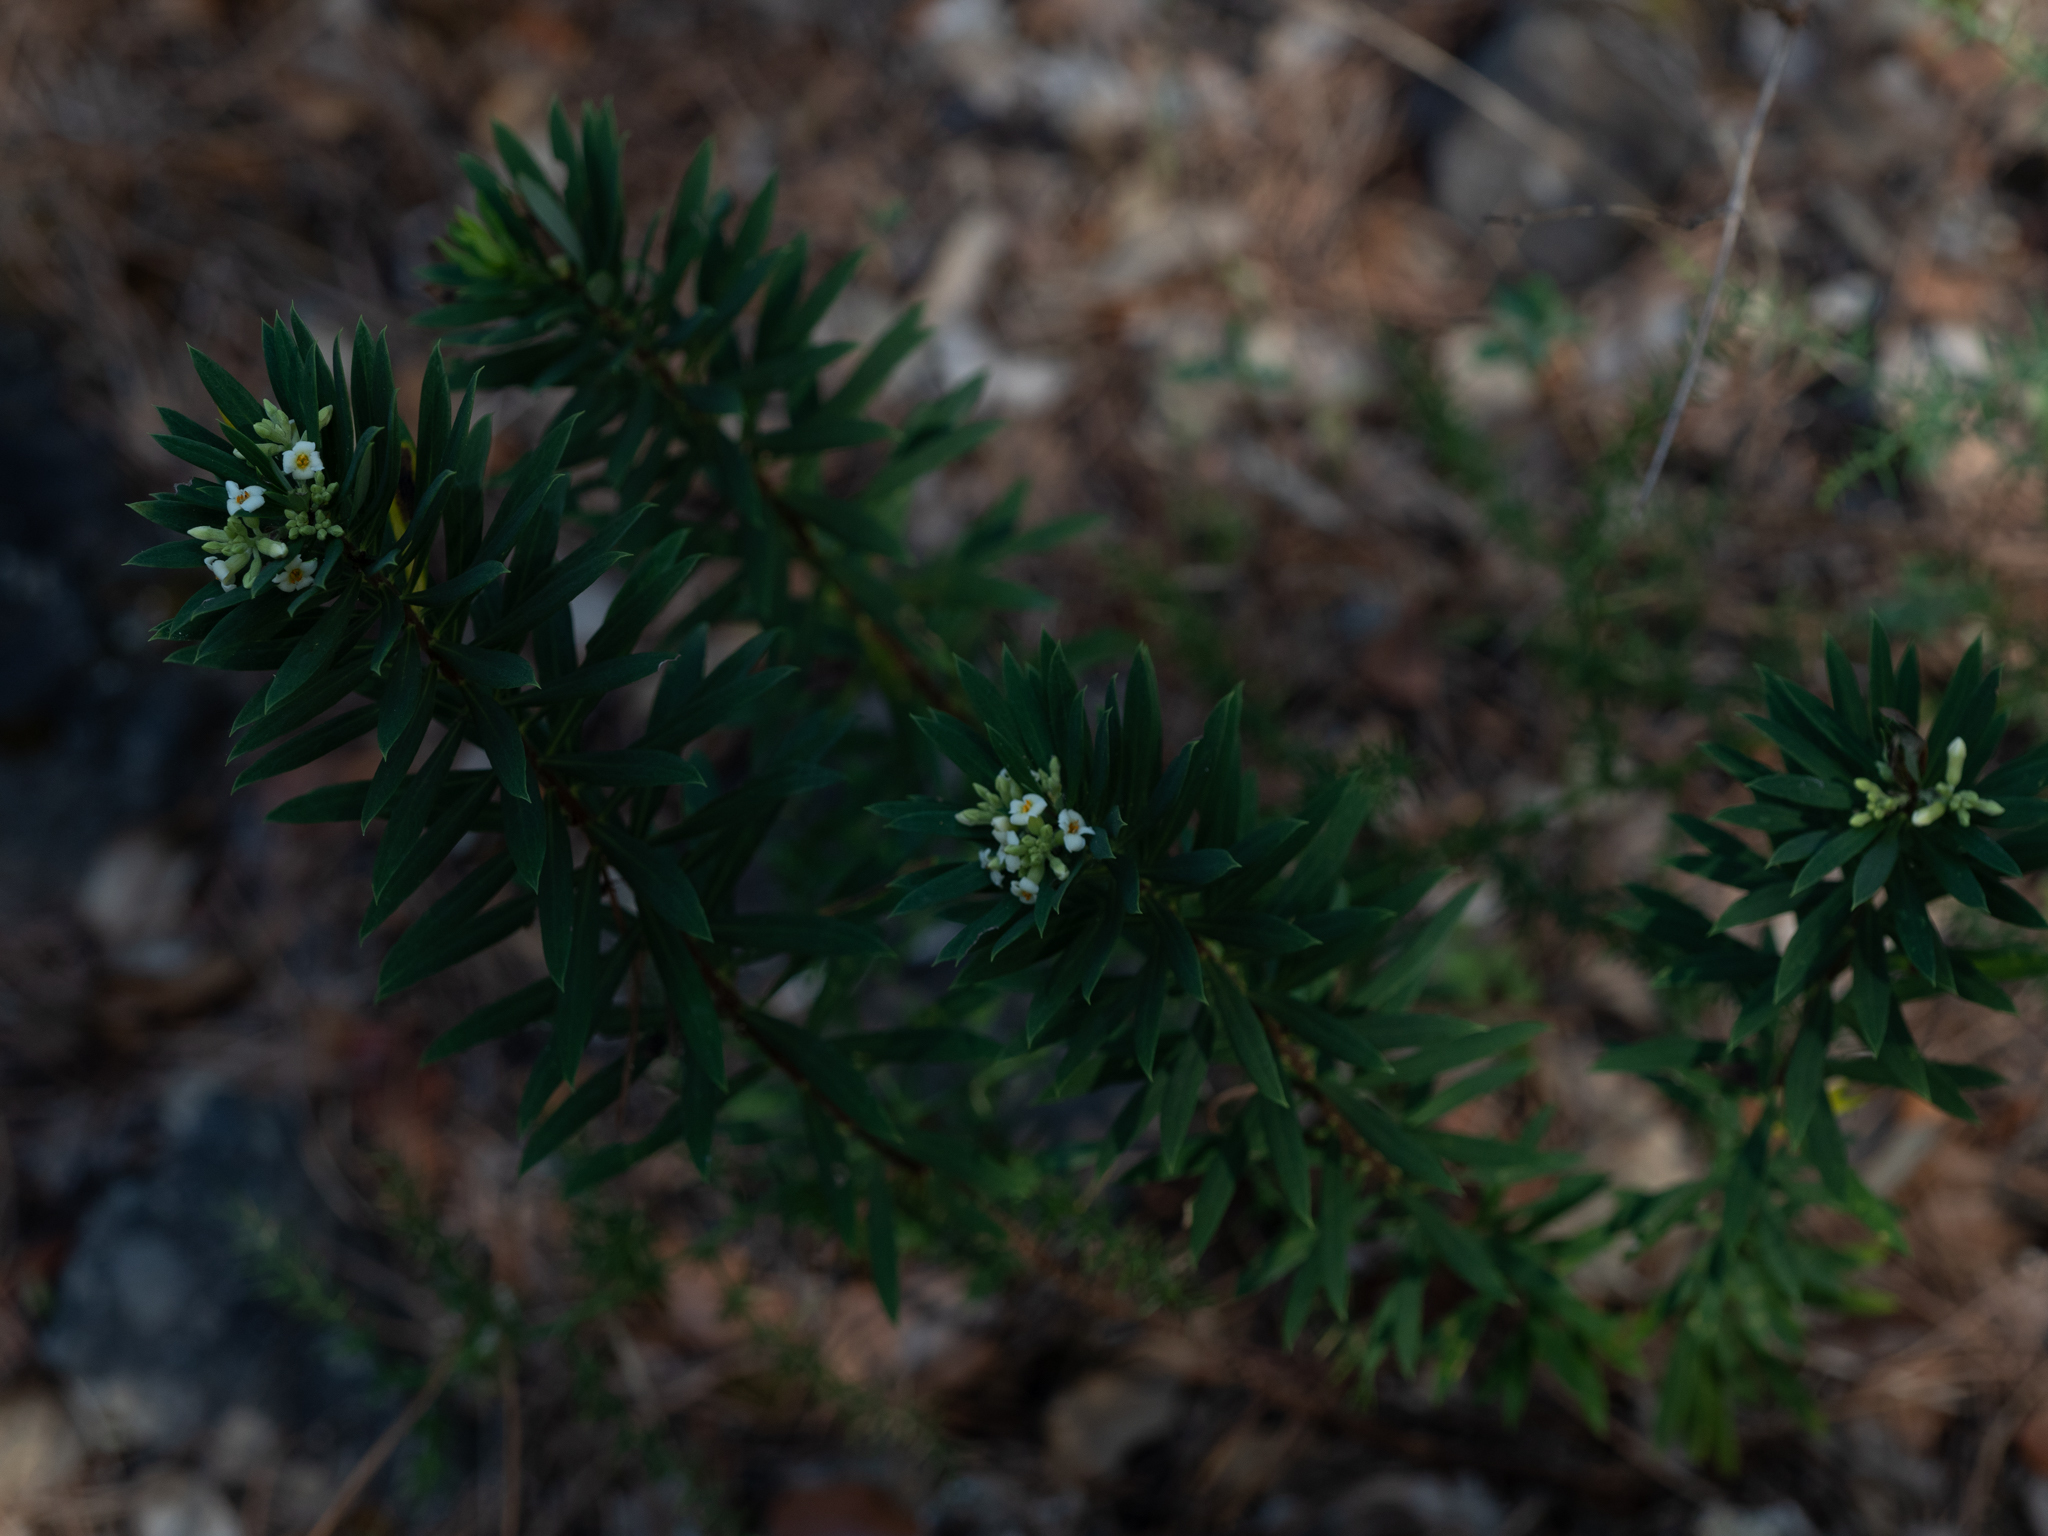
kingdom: Plantae
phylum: Tracheophyta
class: Magnoliopsida
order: Malvales
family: Thymelaeaceae
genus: Daphne
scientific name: Daphne gnidium
